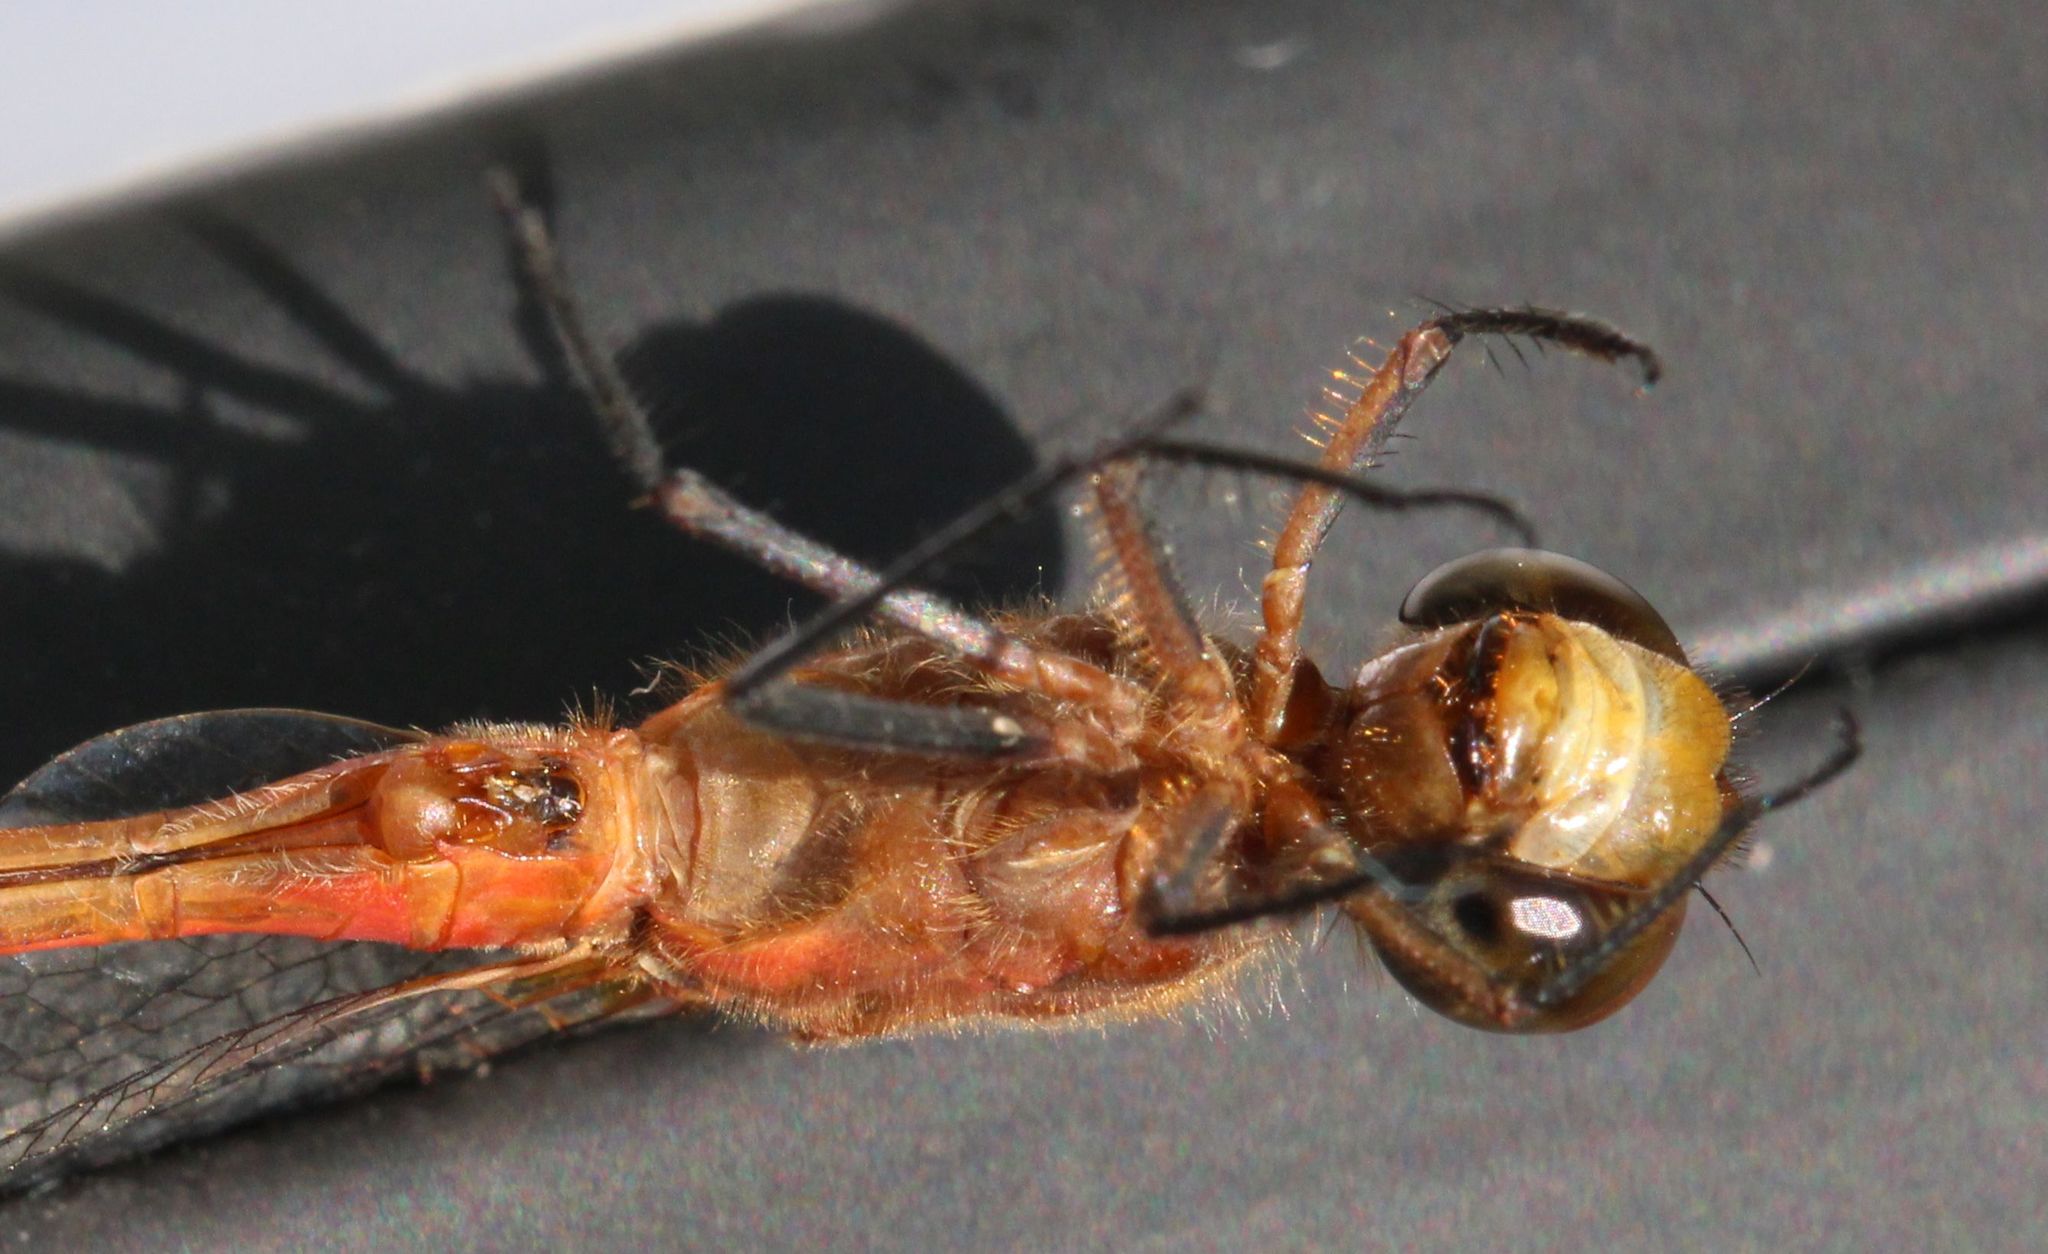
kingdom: Animalia
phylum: Arthropoda
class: Insecta
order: Odonata
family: Libellulidae
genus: Sympetrum
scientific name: Sympetrum rubicundulum
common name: Ruby meadowhawk
